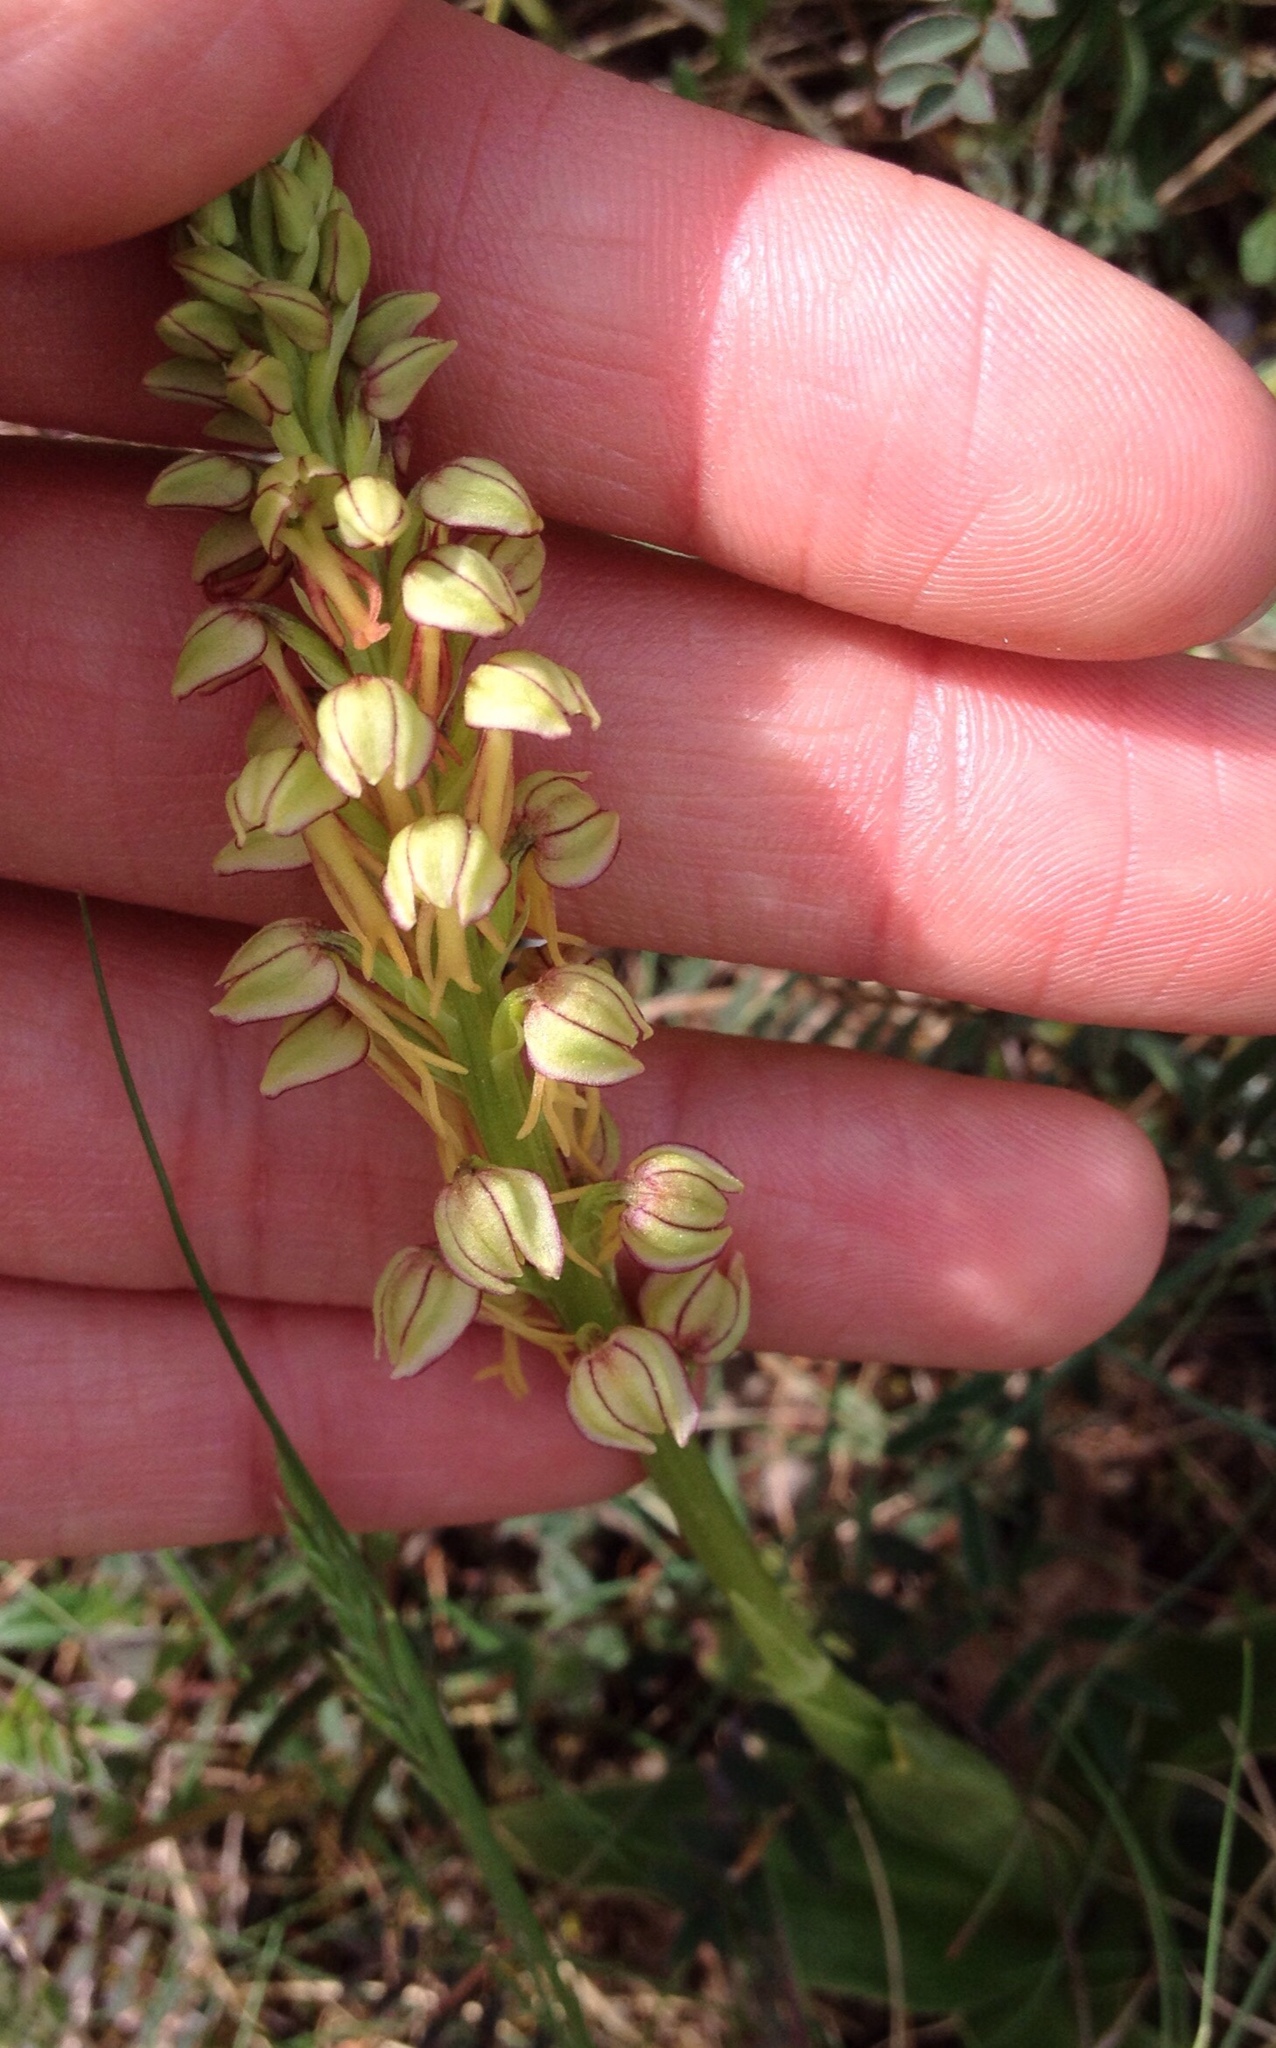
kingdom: Plantae
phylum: Tracheophyta
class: Liliopsida
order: Asparagales
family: Orchidaceae
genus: Orchis
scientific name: Orchis anthropophora
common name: Man orchid
